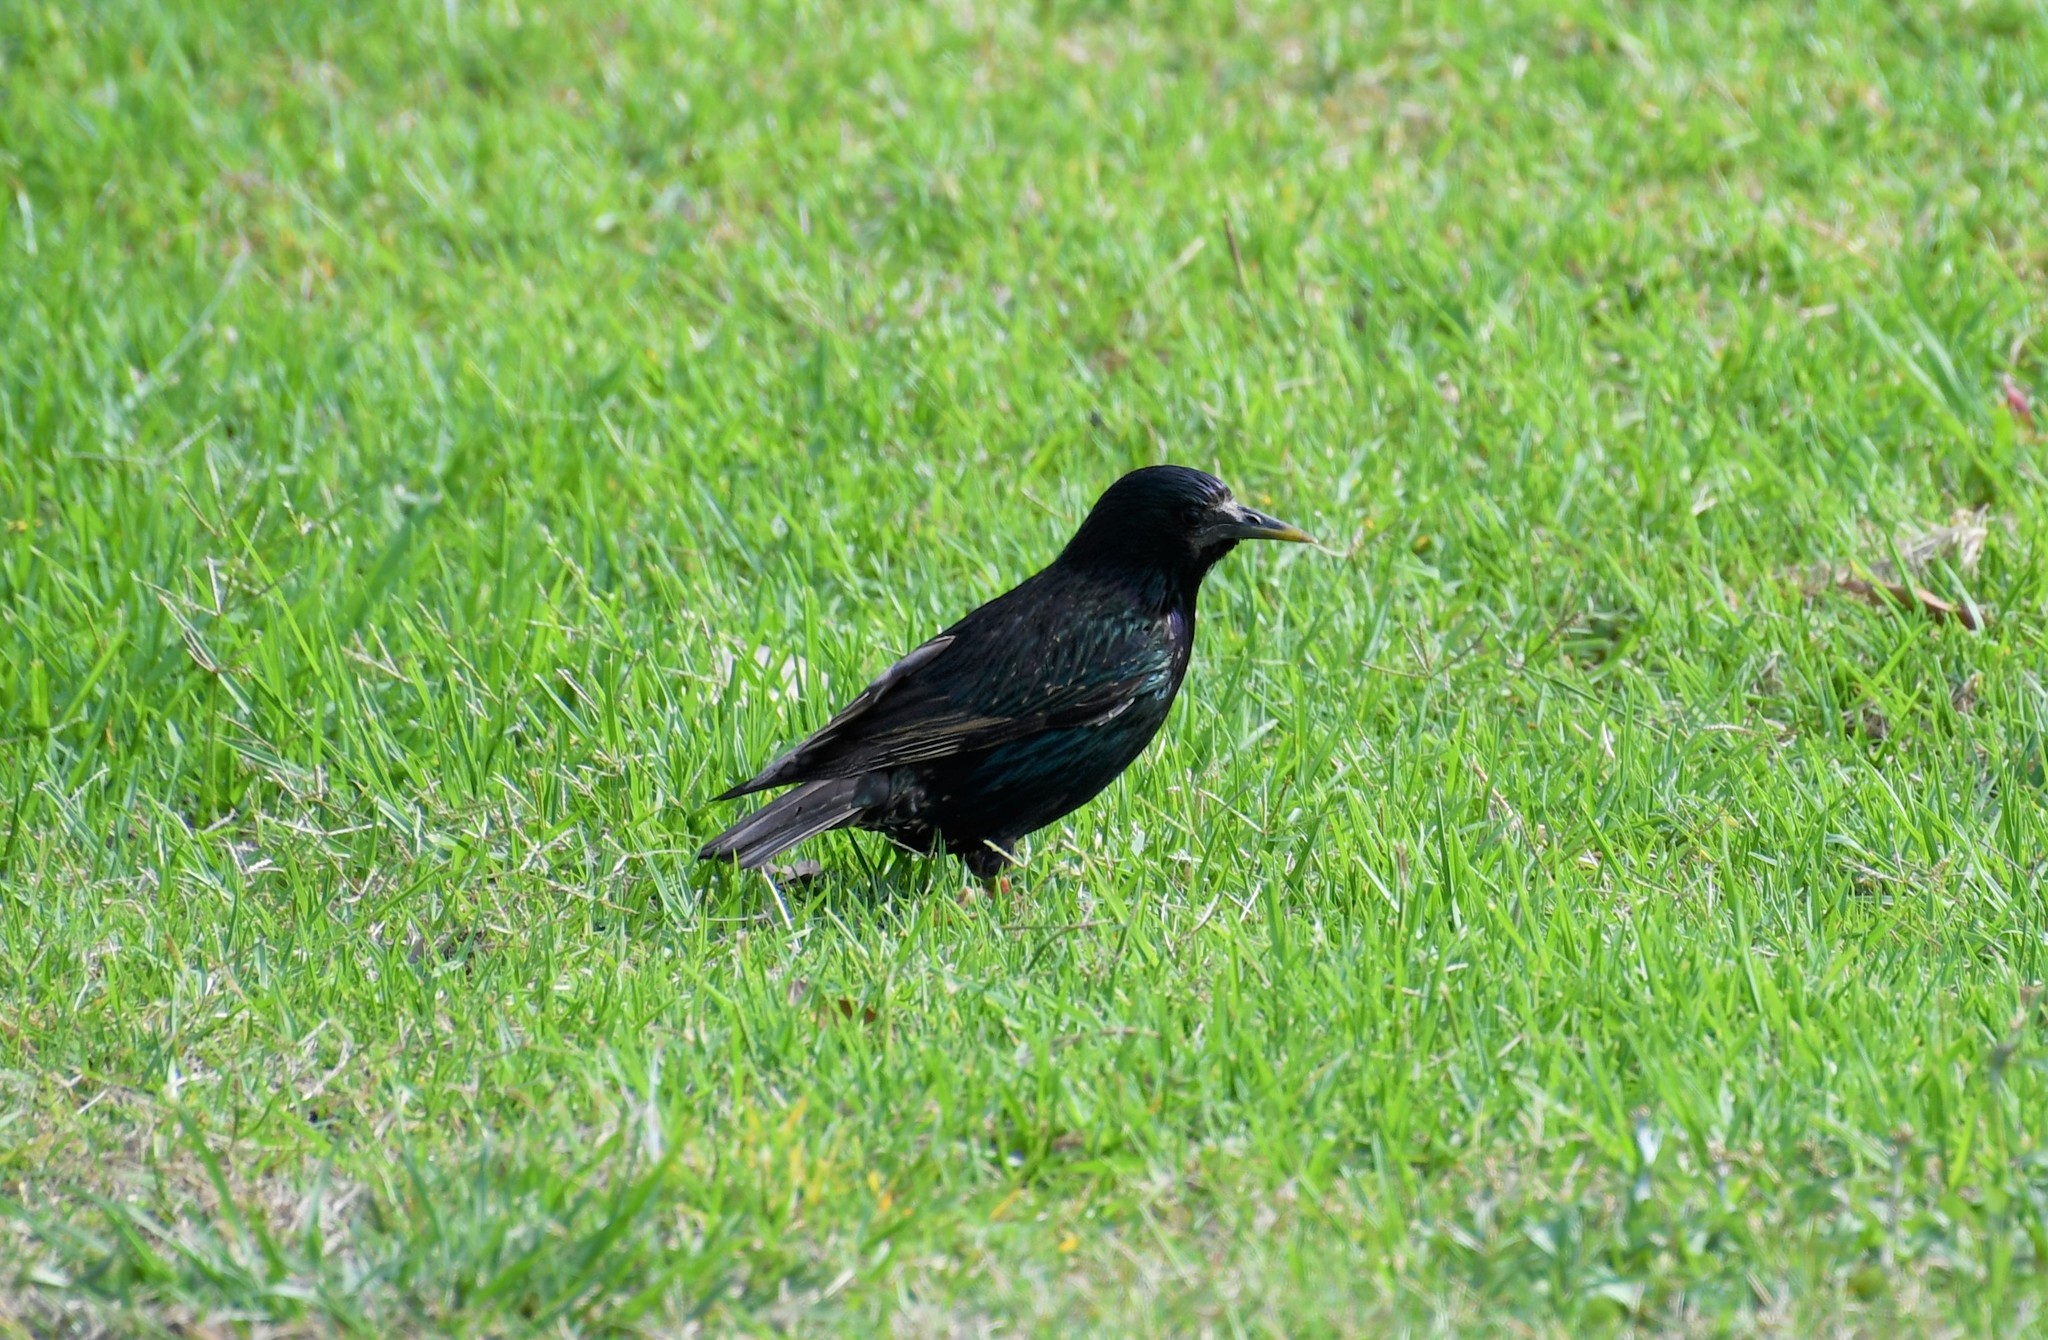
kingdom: Animalia
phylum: Chordata
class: Aves
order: Passeriformes
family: Sturnidae
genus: Sturnus
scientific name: Sturnus vulgaris
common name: Common starling
